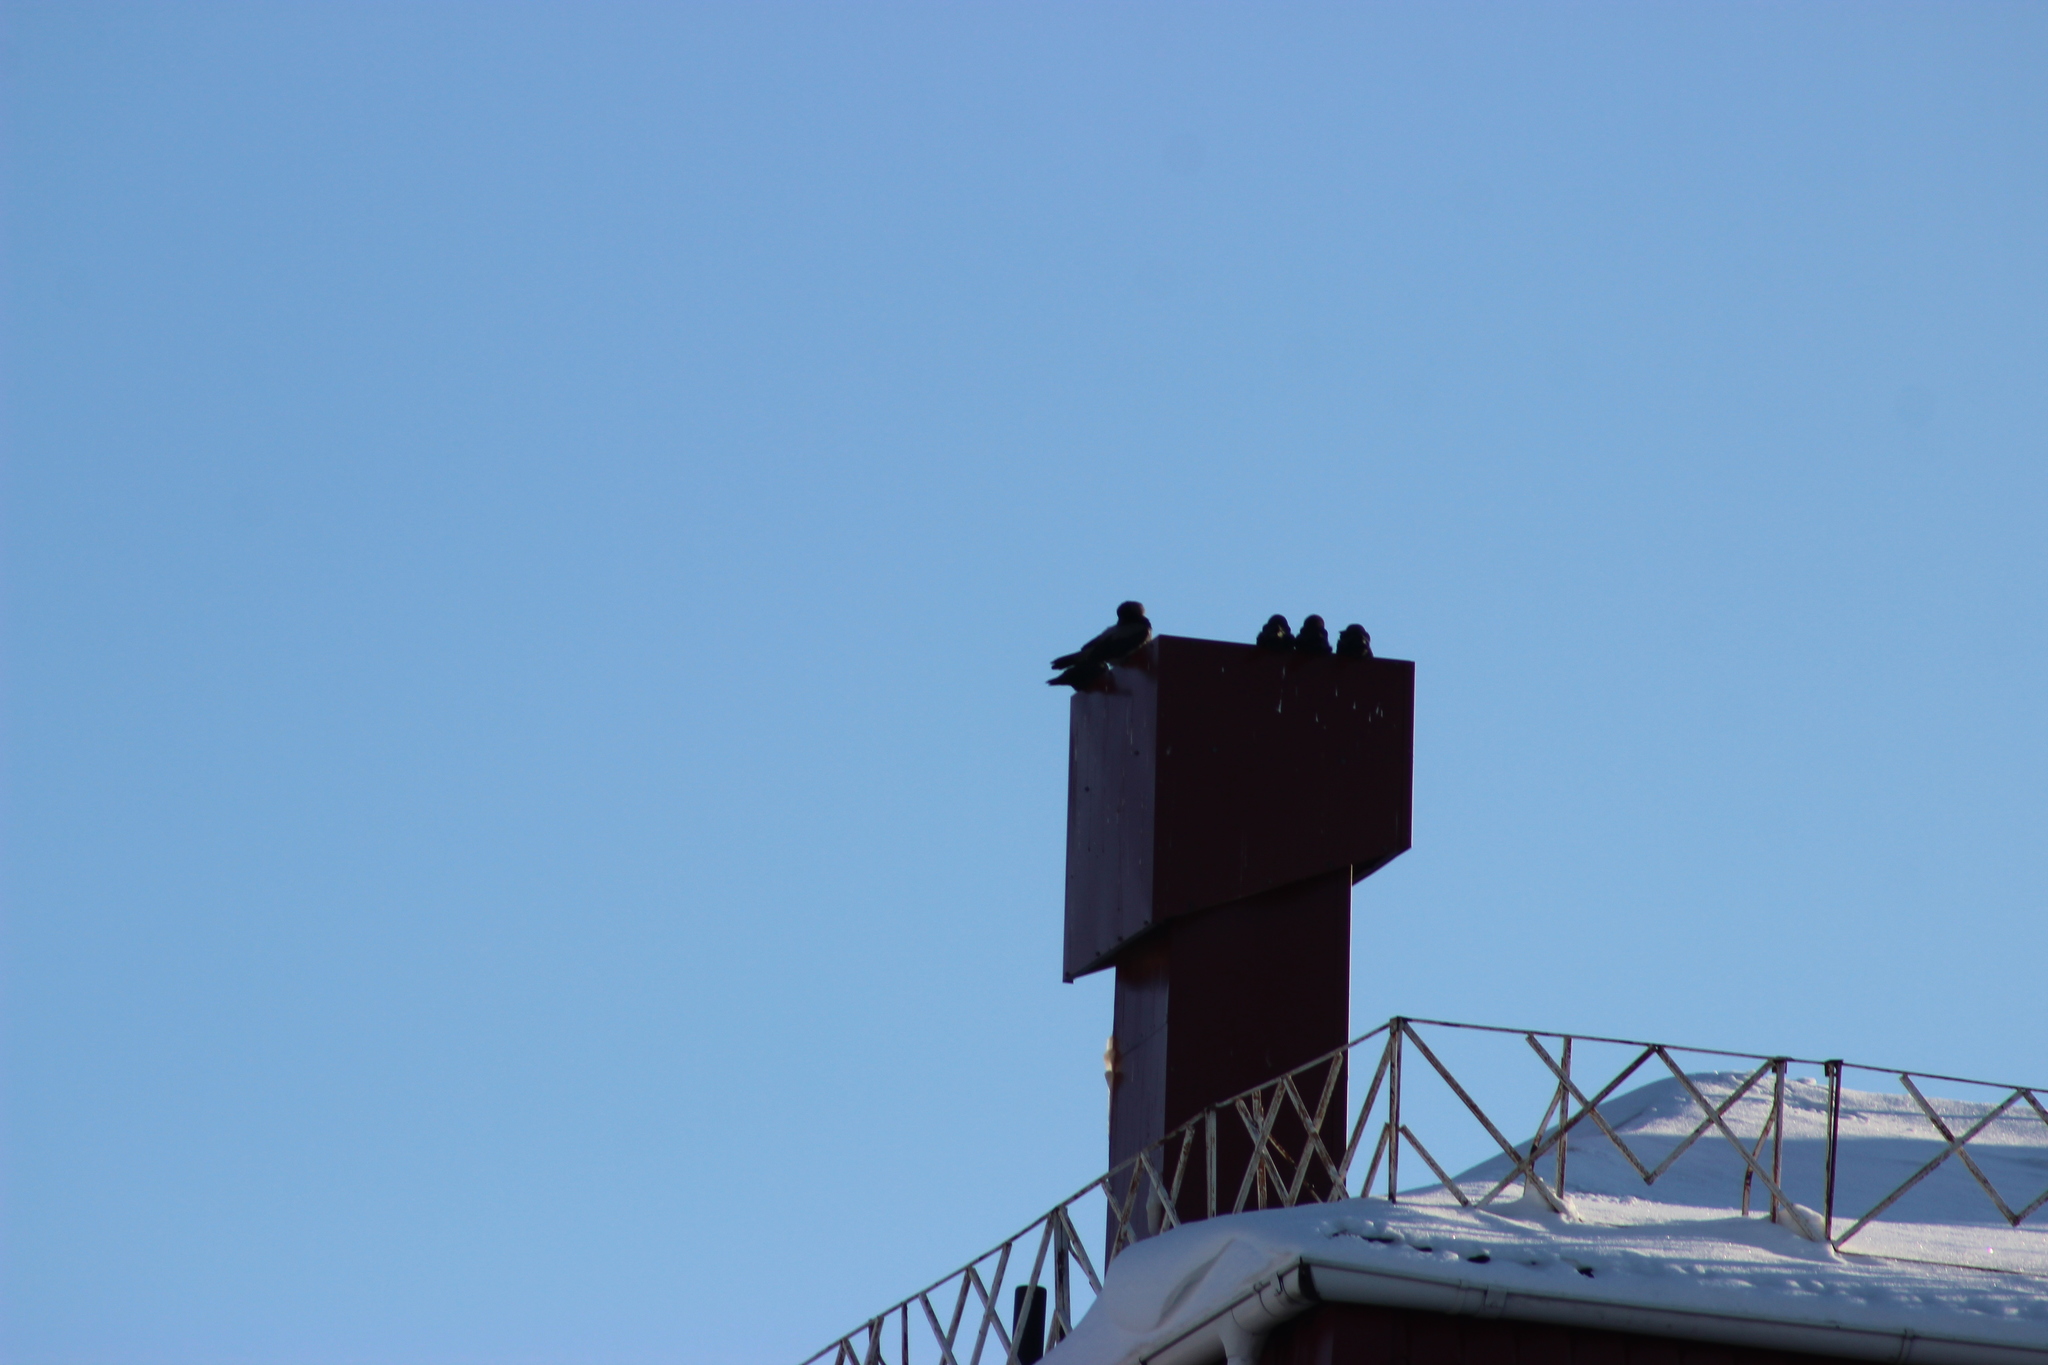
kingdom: Animalia
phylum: Chordata
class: Aves
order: Passeriformes
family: Corvidae
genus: Corvus
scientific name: Corvus cornix
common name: Hooded crow
